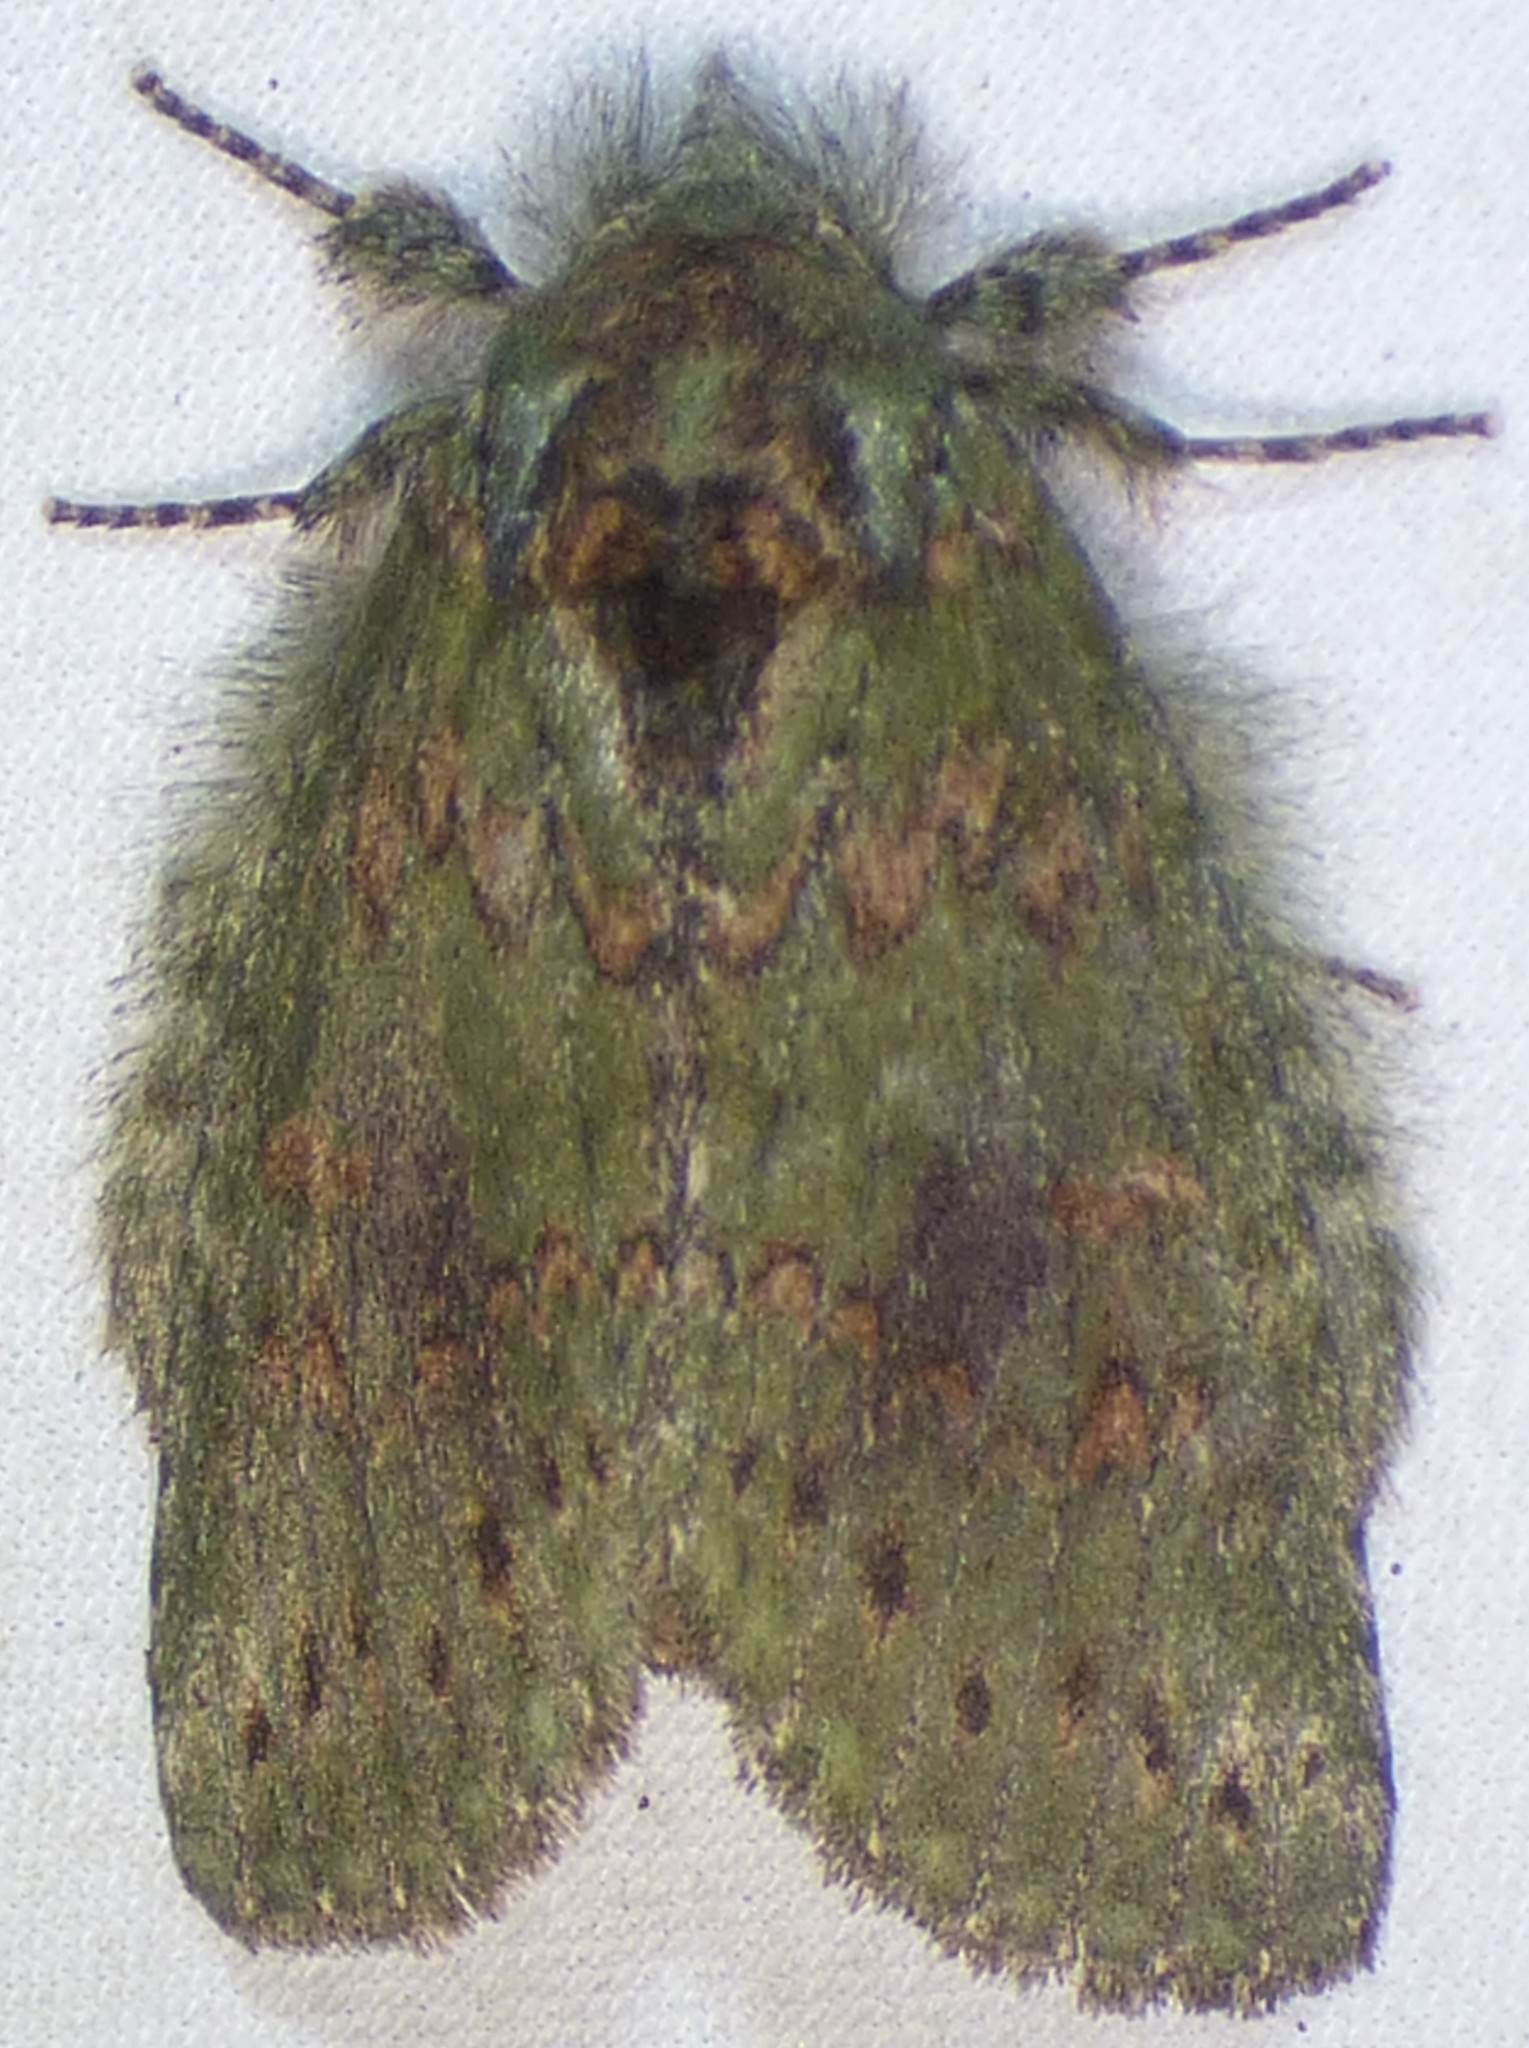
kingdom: Animalia
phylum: Arthropoda
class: Insecta
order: Lepidoptera
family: Notodontidae
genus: Disphragis
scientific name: Disphragis Cecrita biundata
